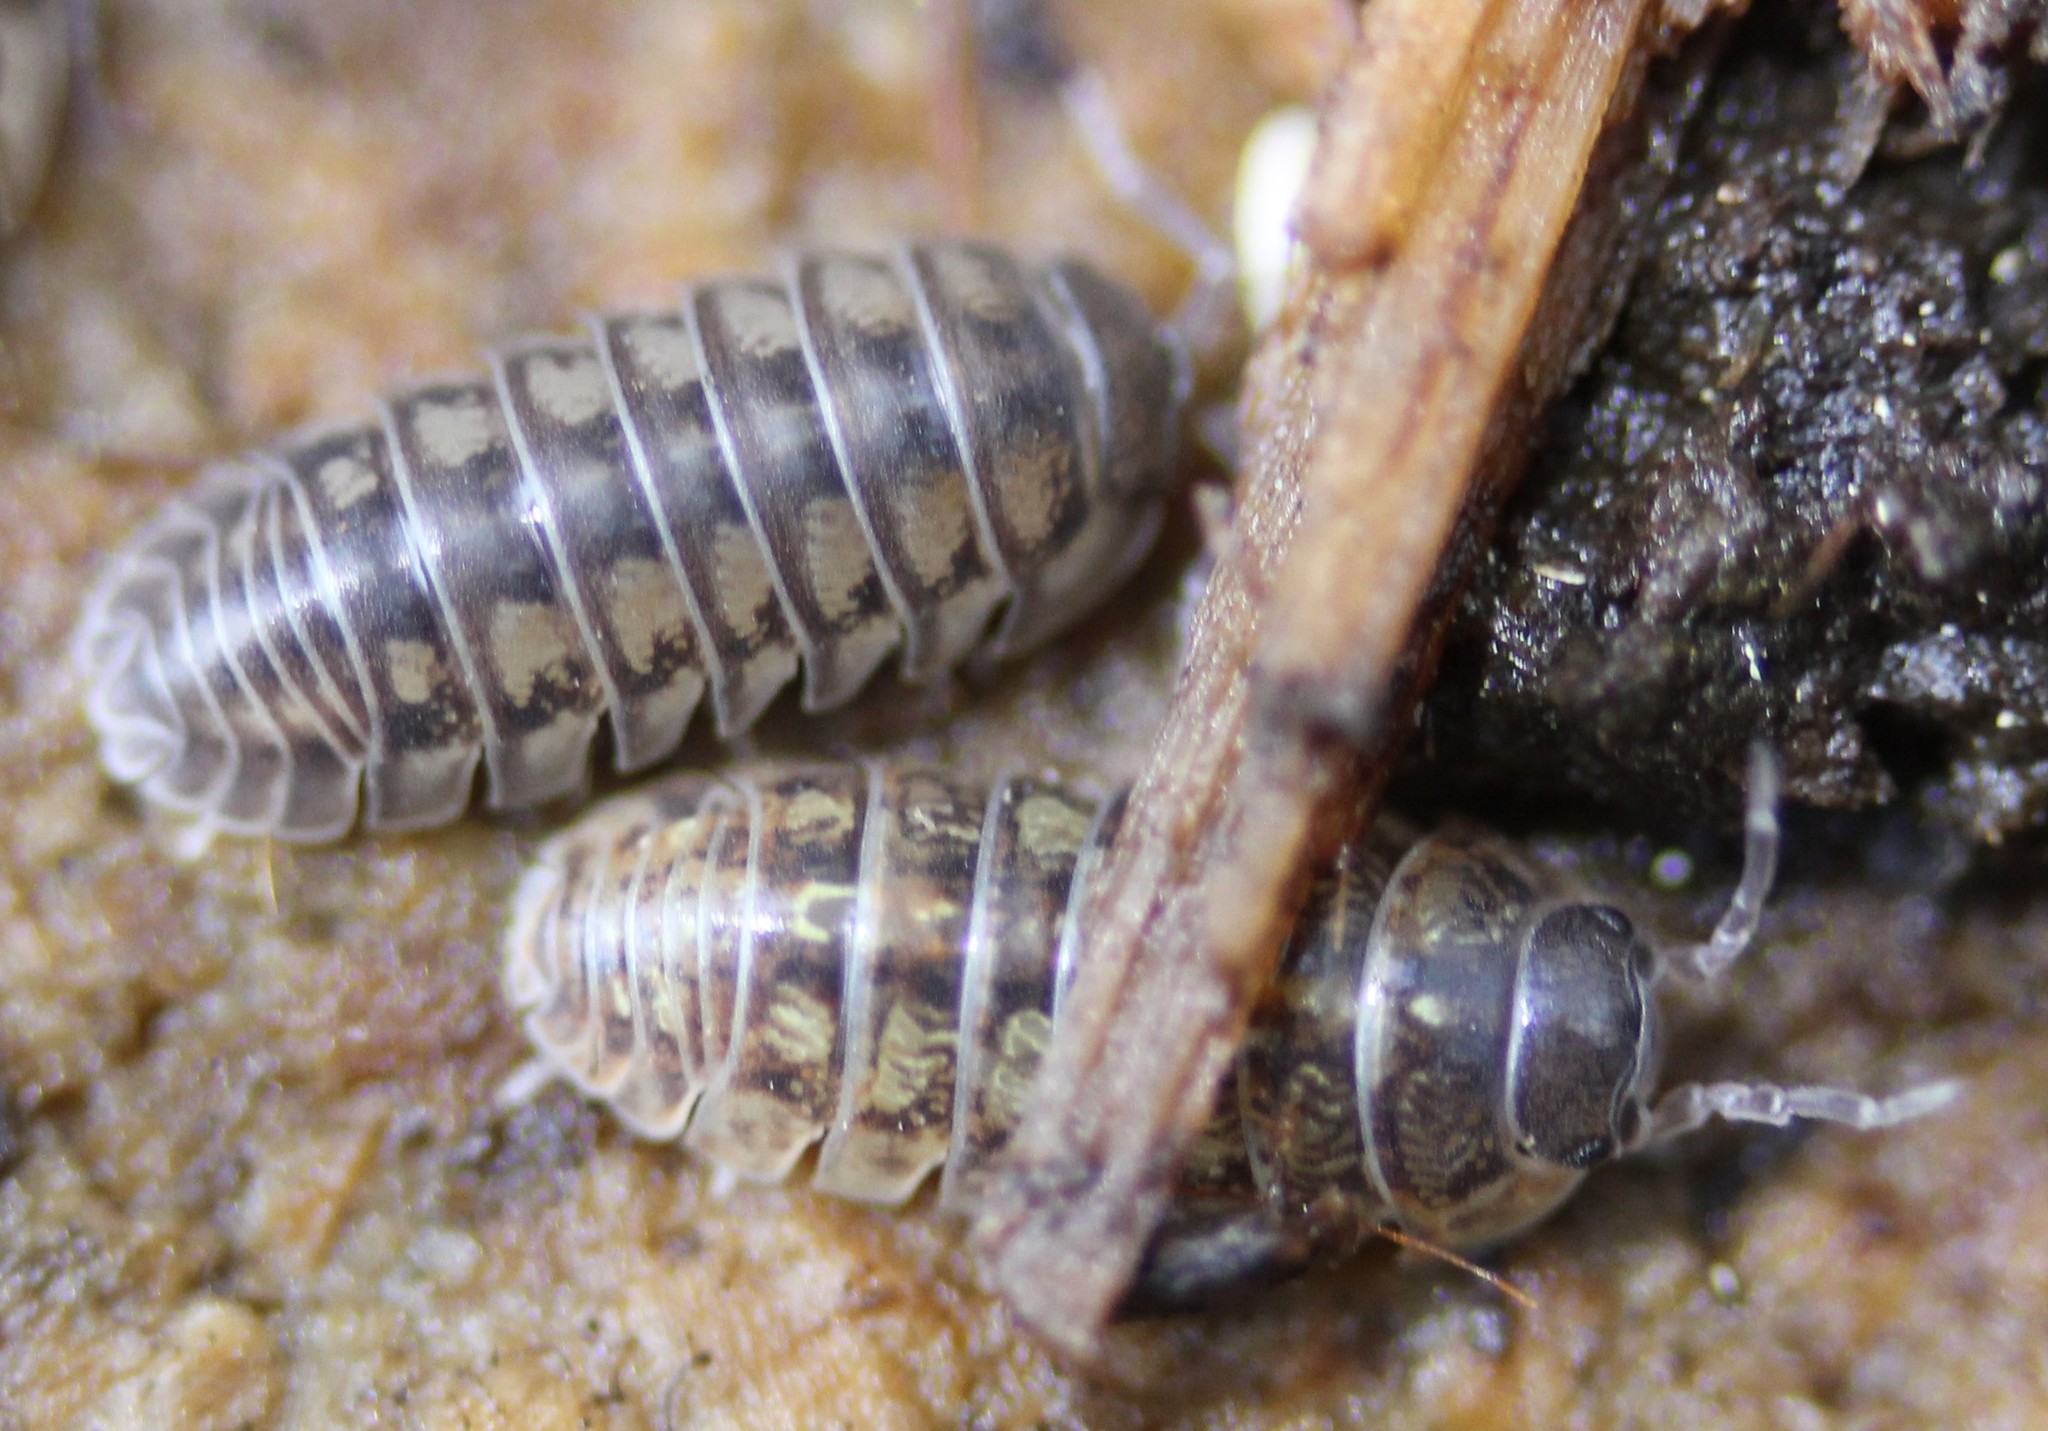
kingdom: Animalia
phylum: Arthropoda
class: Malacostraca
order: Isopoda
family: Armadillidiidae
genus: Armadillidium
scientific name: Armadillidium vulgare
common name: Common pill woodlouse
